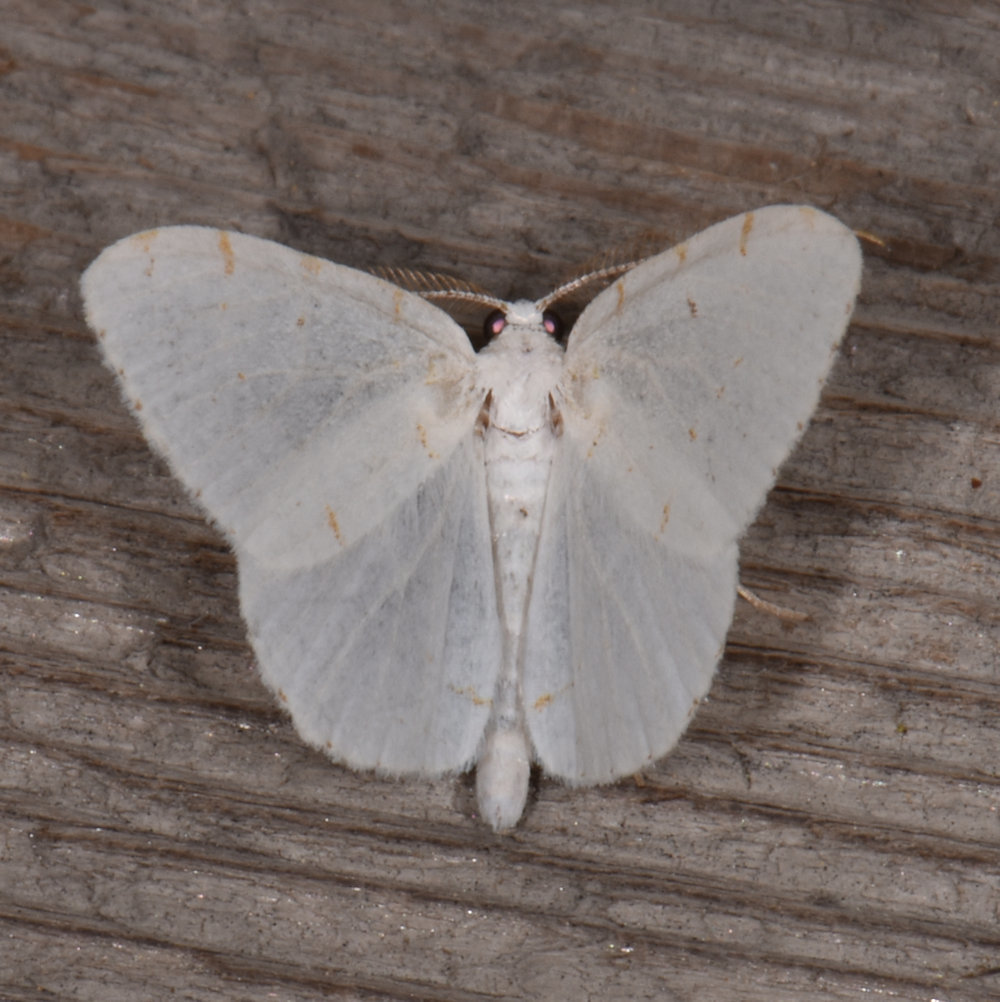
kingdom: Animalia
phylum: Arthropoda
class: Insecta
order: Lepidoptera
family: Geometridae
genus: Macaria
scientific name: Macaria pustularia
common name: Lesser maple spanworm moth
